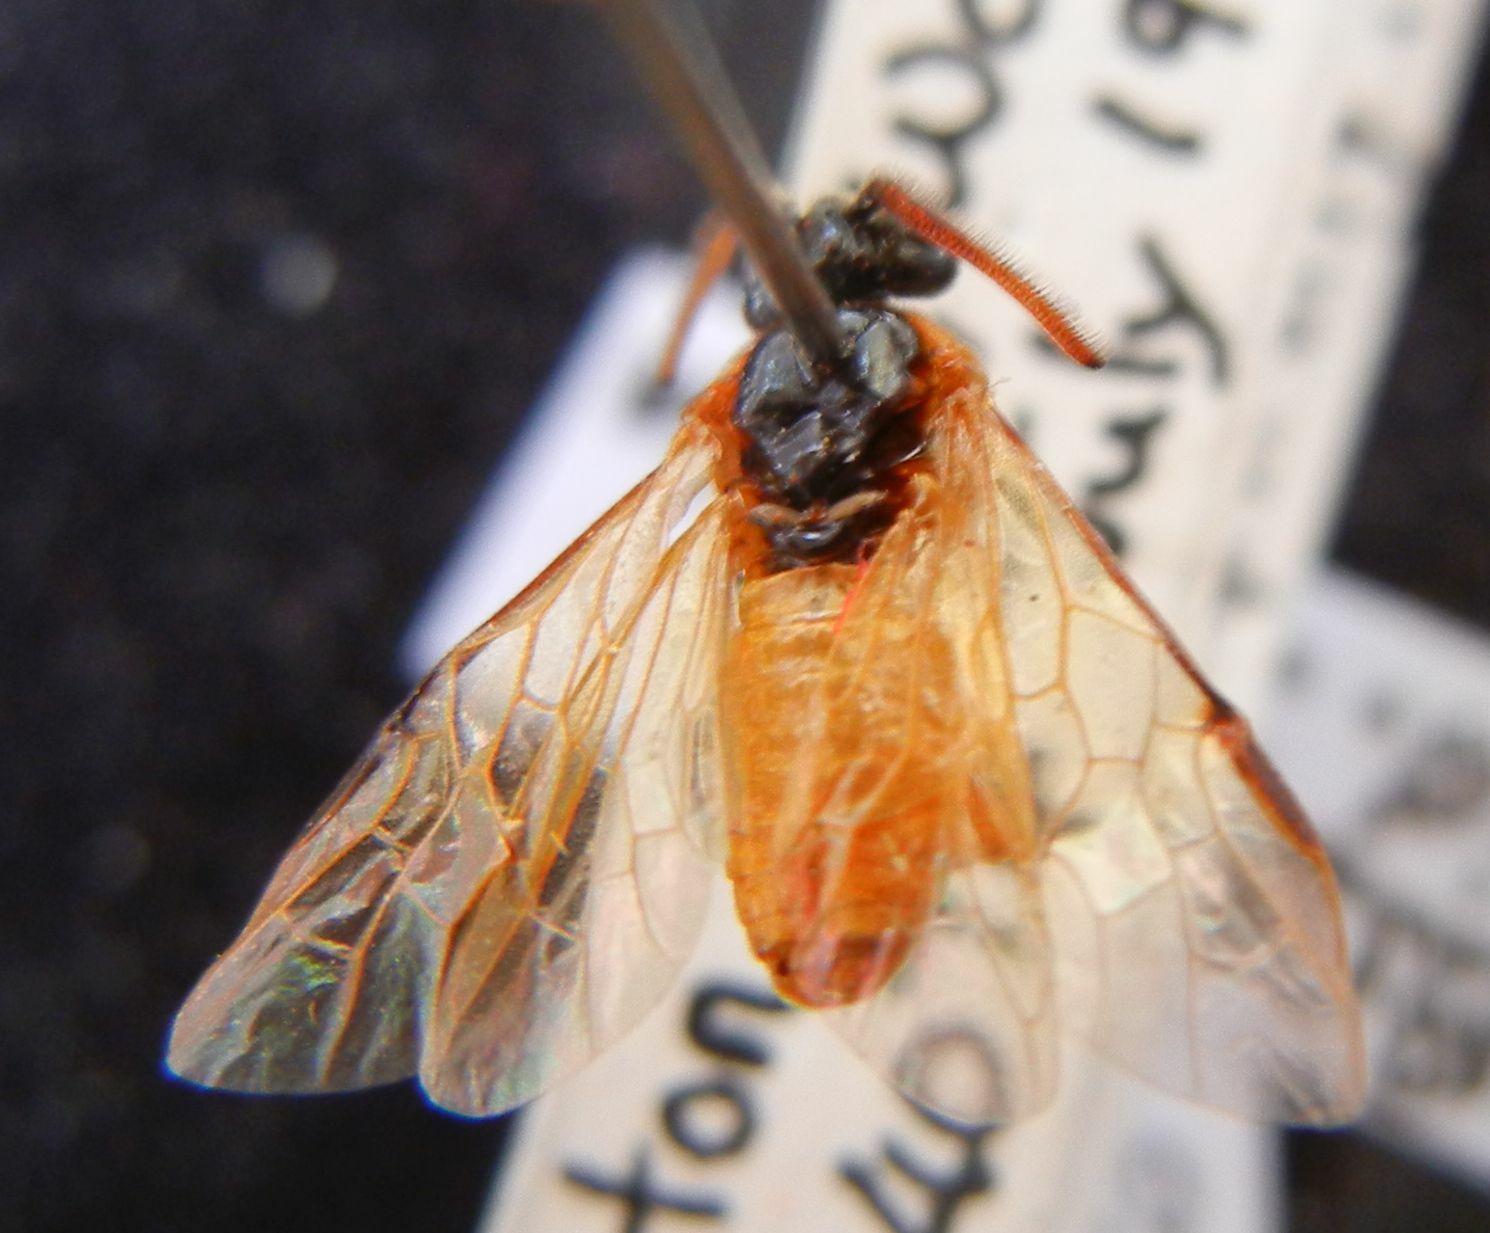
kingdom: Animalia
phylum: Arthropoda
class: Insecta
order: Hymenoptera
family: Argidae
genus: Arge
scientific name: Arge ochropus
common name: Argid sawfly
